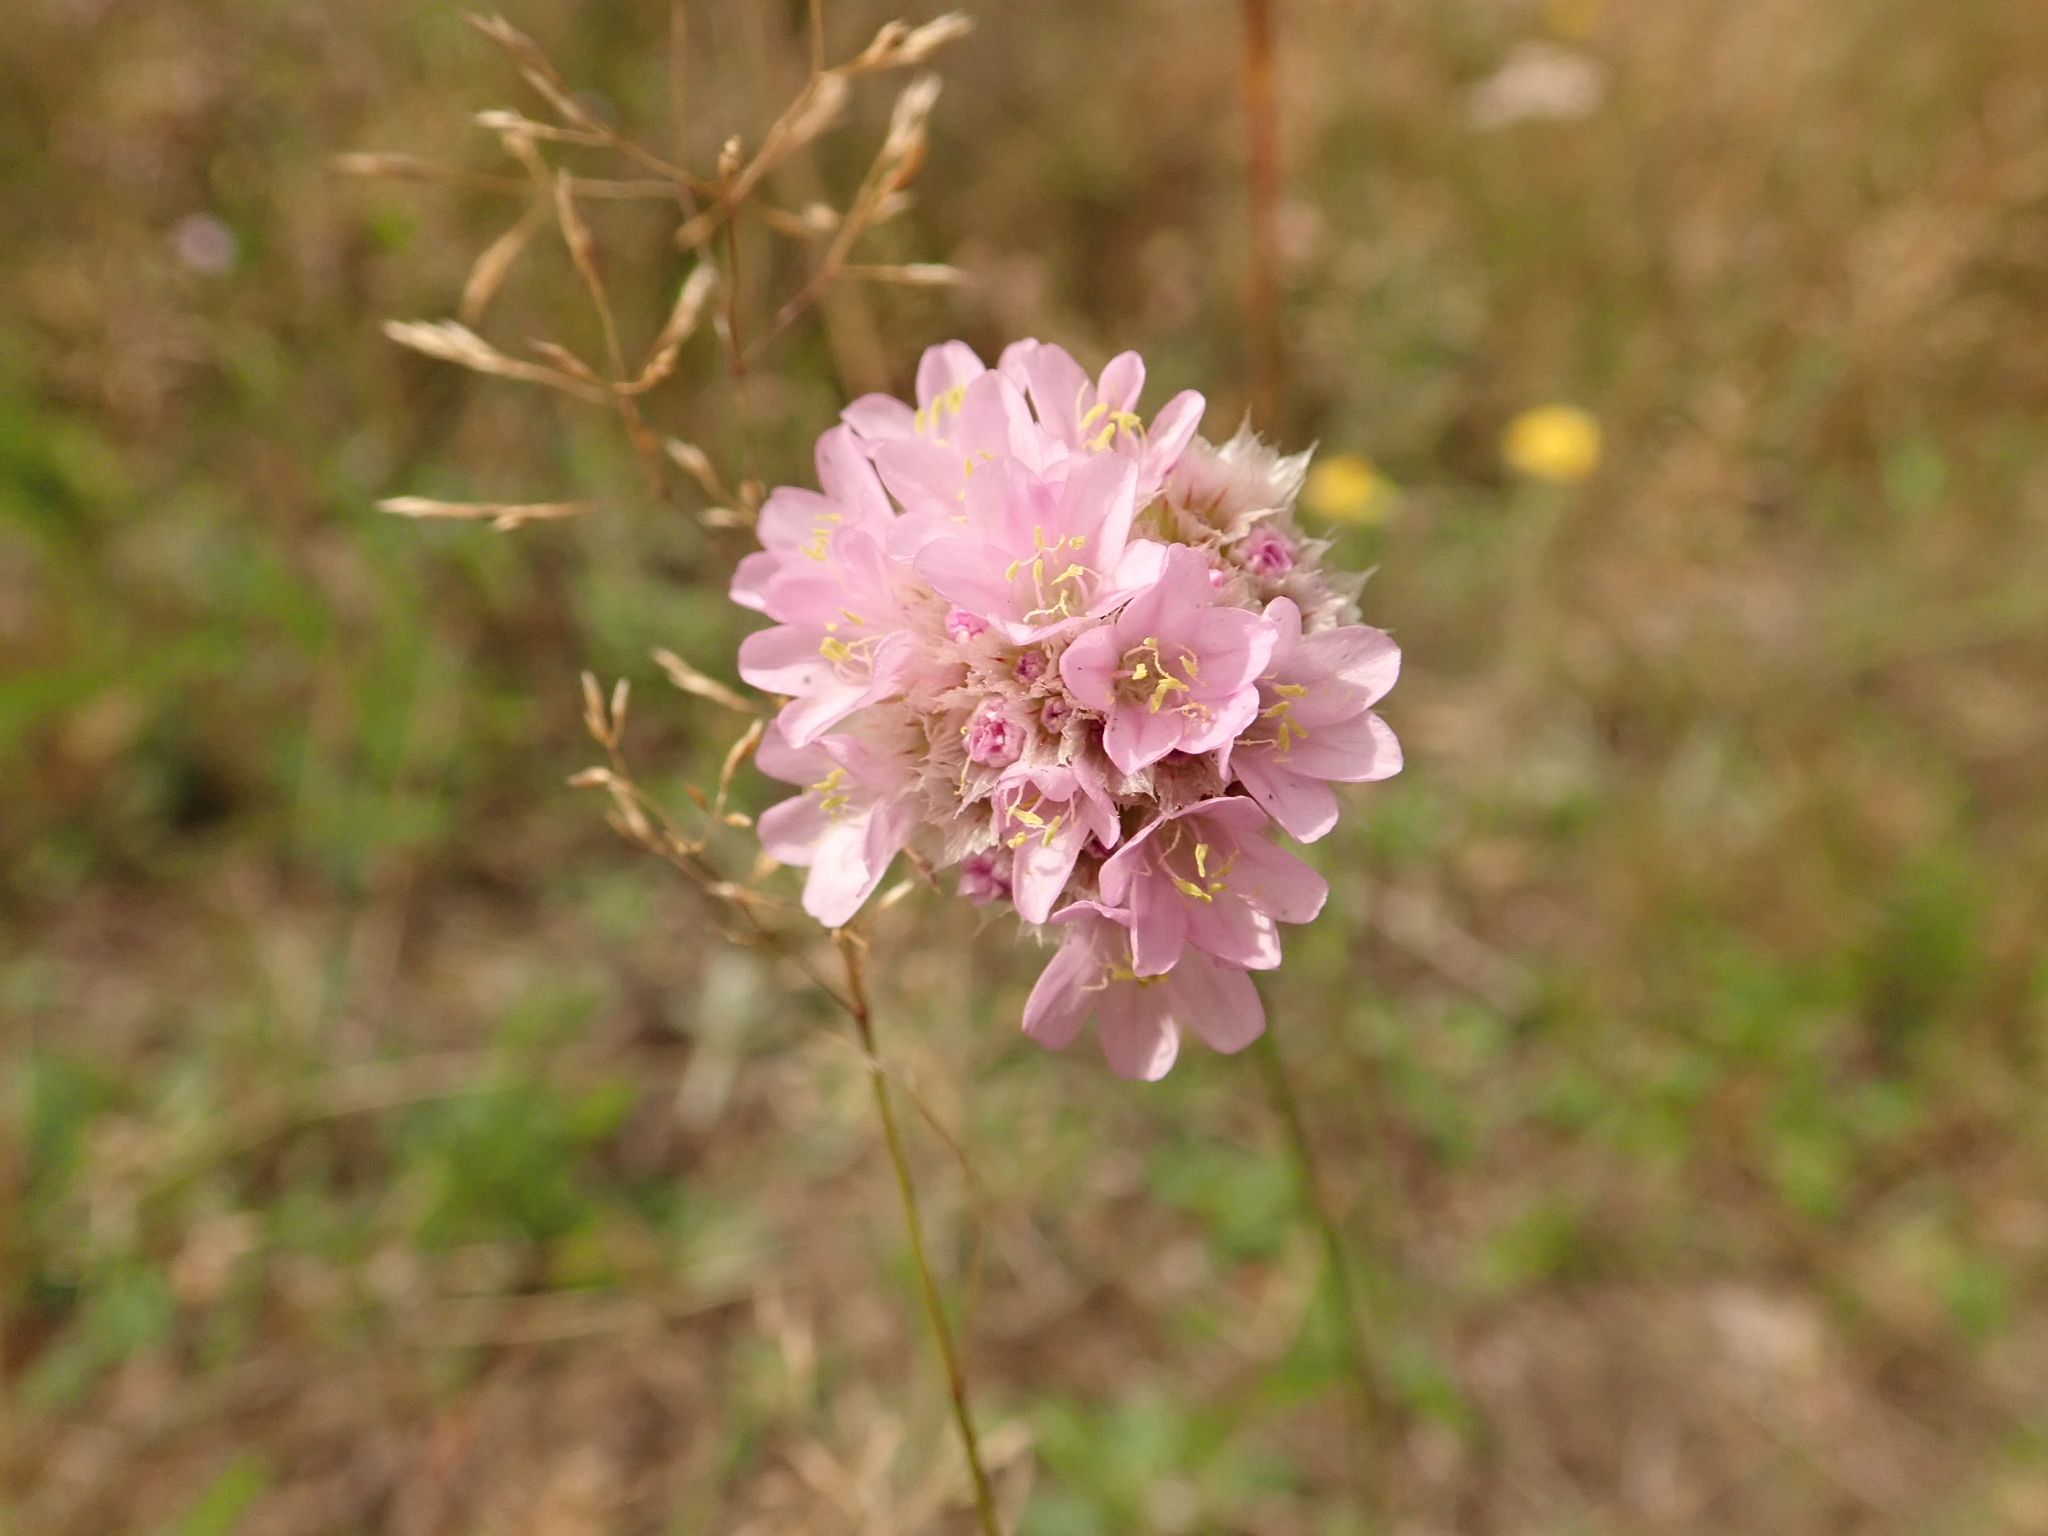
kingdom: Plantae
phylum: Tracheophyta
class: Magnoliopsida
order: Caryophyllales
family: Plumbaginaceae
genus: Armeria
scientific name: Armeria maritima
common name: Thrift
